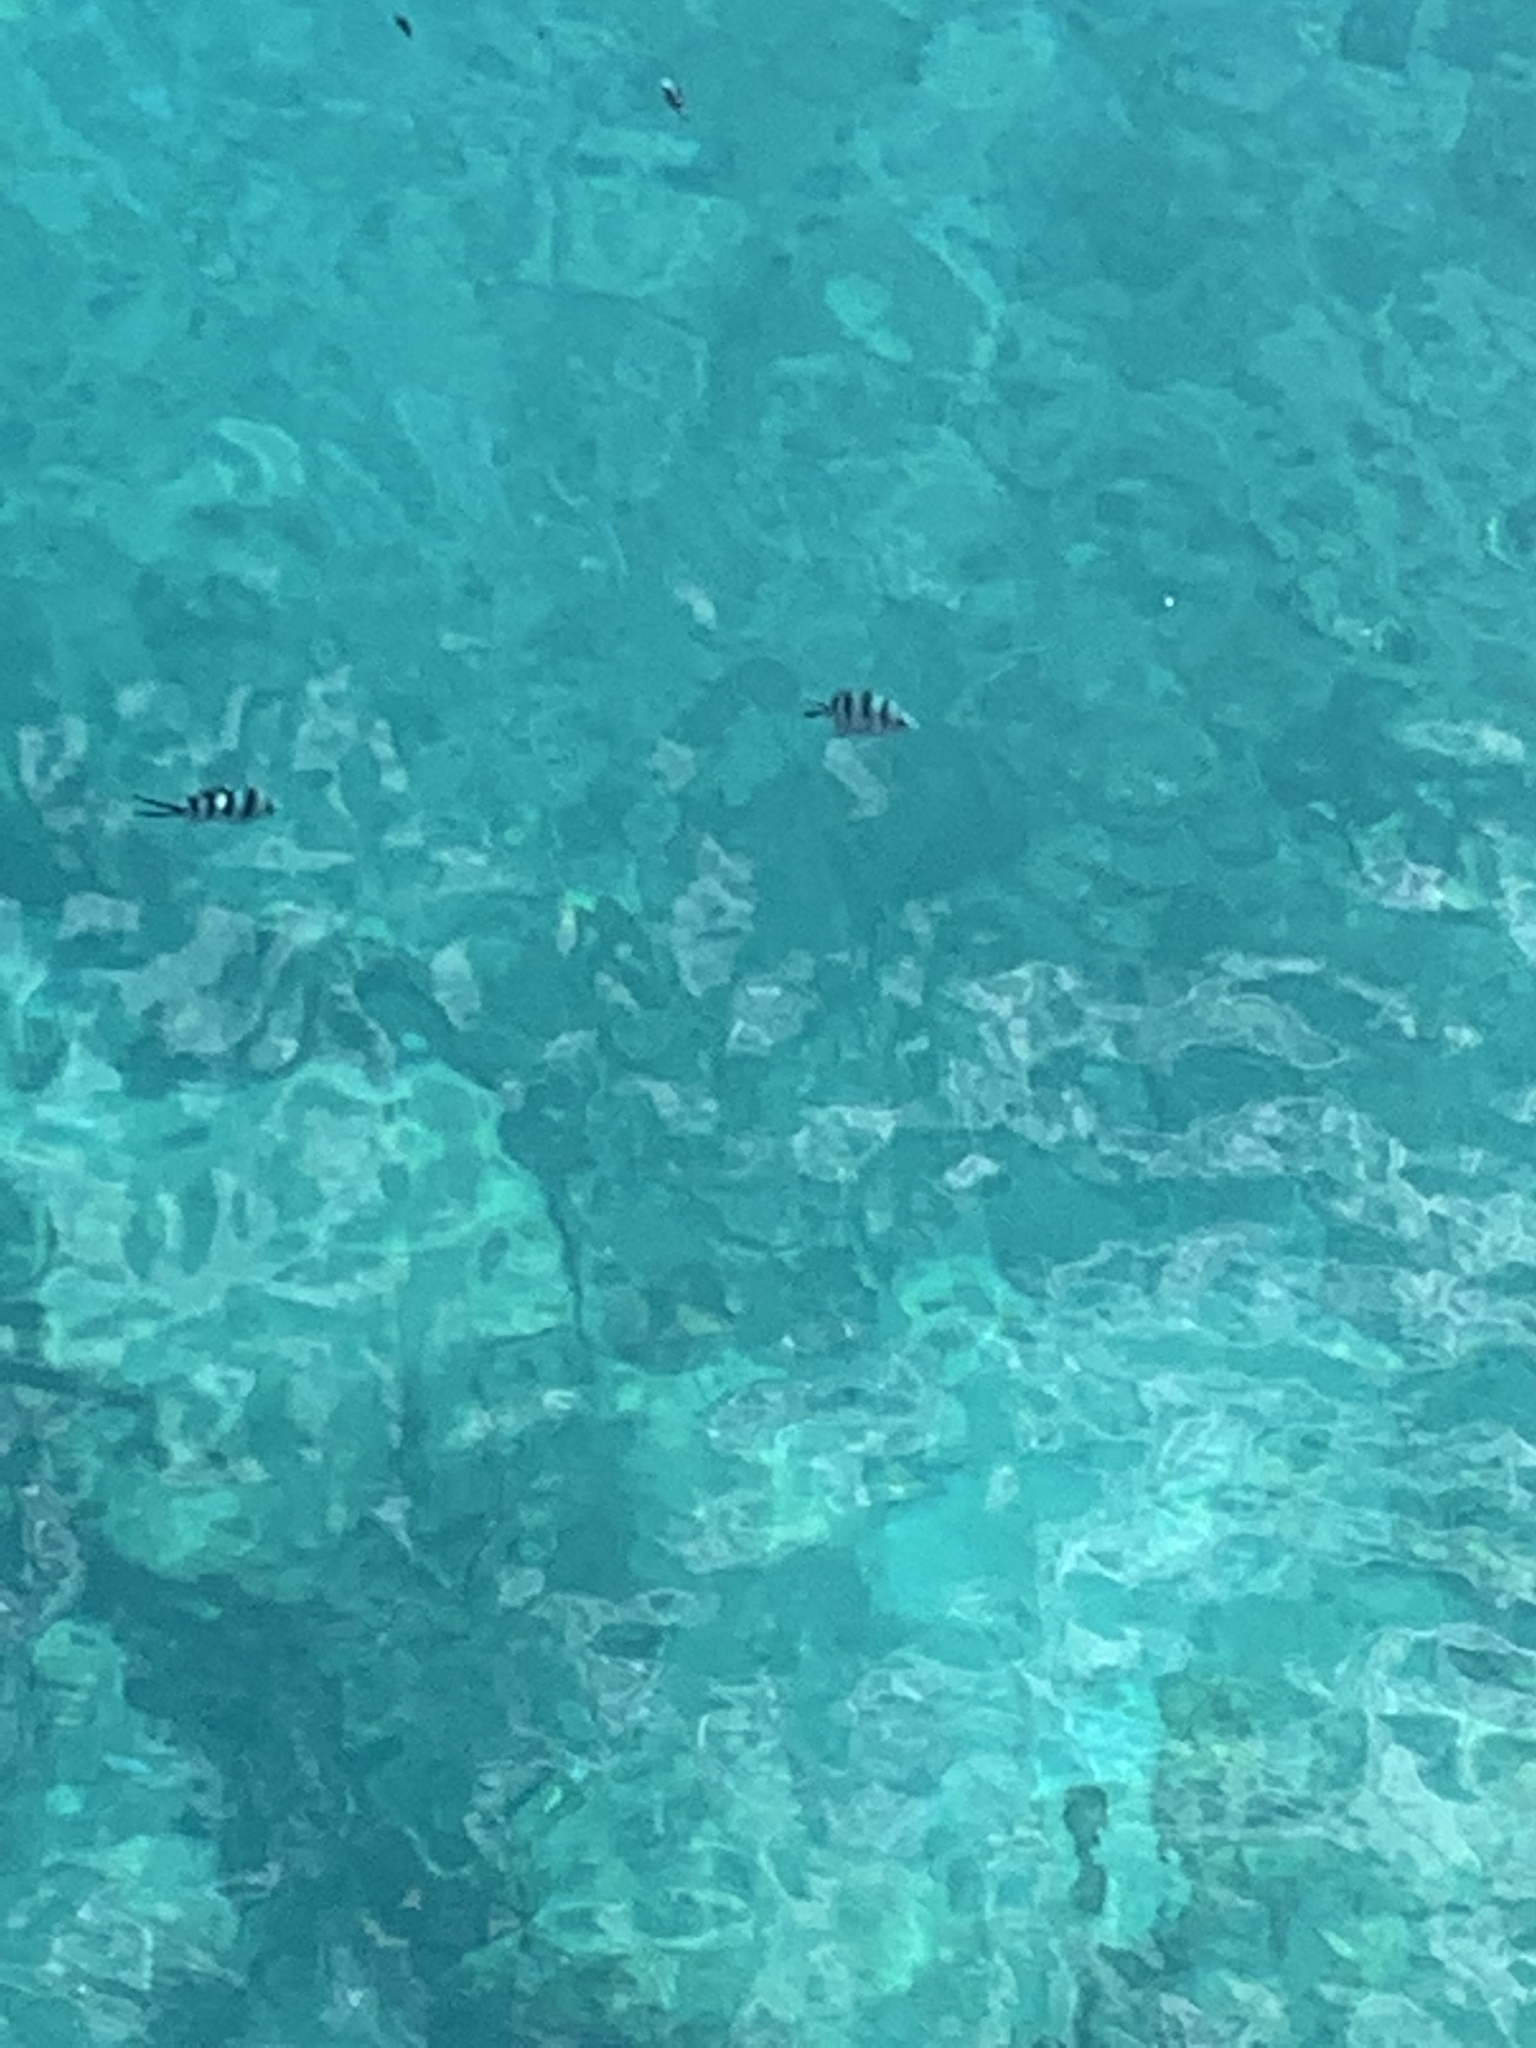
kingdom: Animalia
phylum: Chordata
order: Perciformes
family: Pomacentridae
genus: Abudefduf
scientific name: Abudefduf sexfasciatus
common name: Scissortail sergeant
